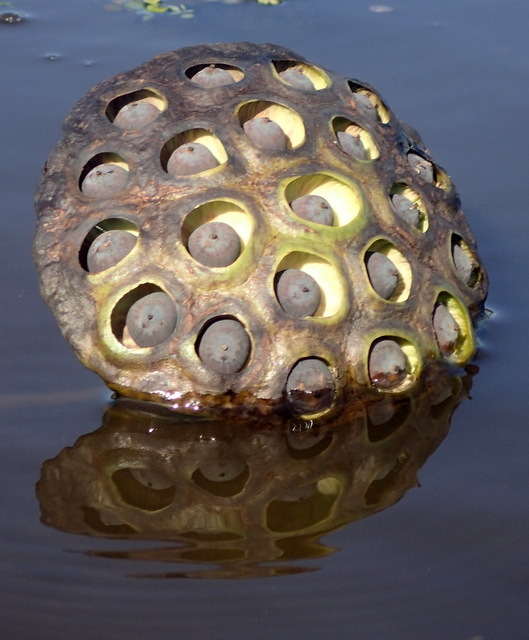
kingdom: Plantae
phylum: Tracheophyta
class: Magnoliopsida
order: Proteales
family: Nelumbonaceae
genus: Nelumbo
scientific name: Nelumbo lutea
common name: American lotus
